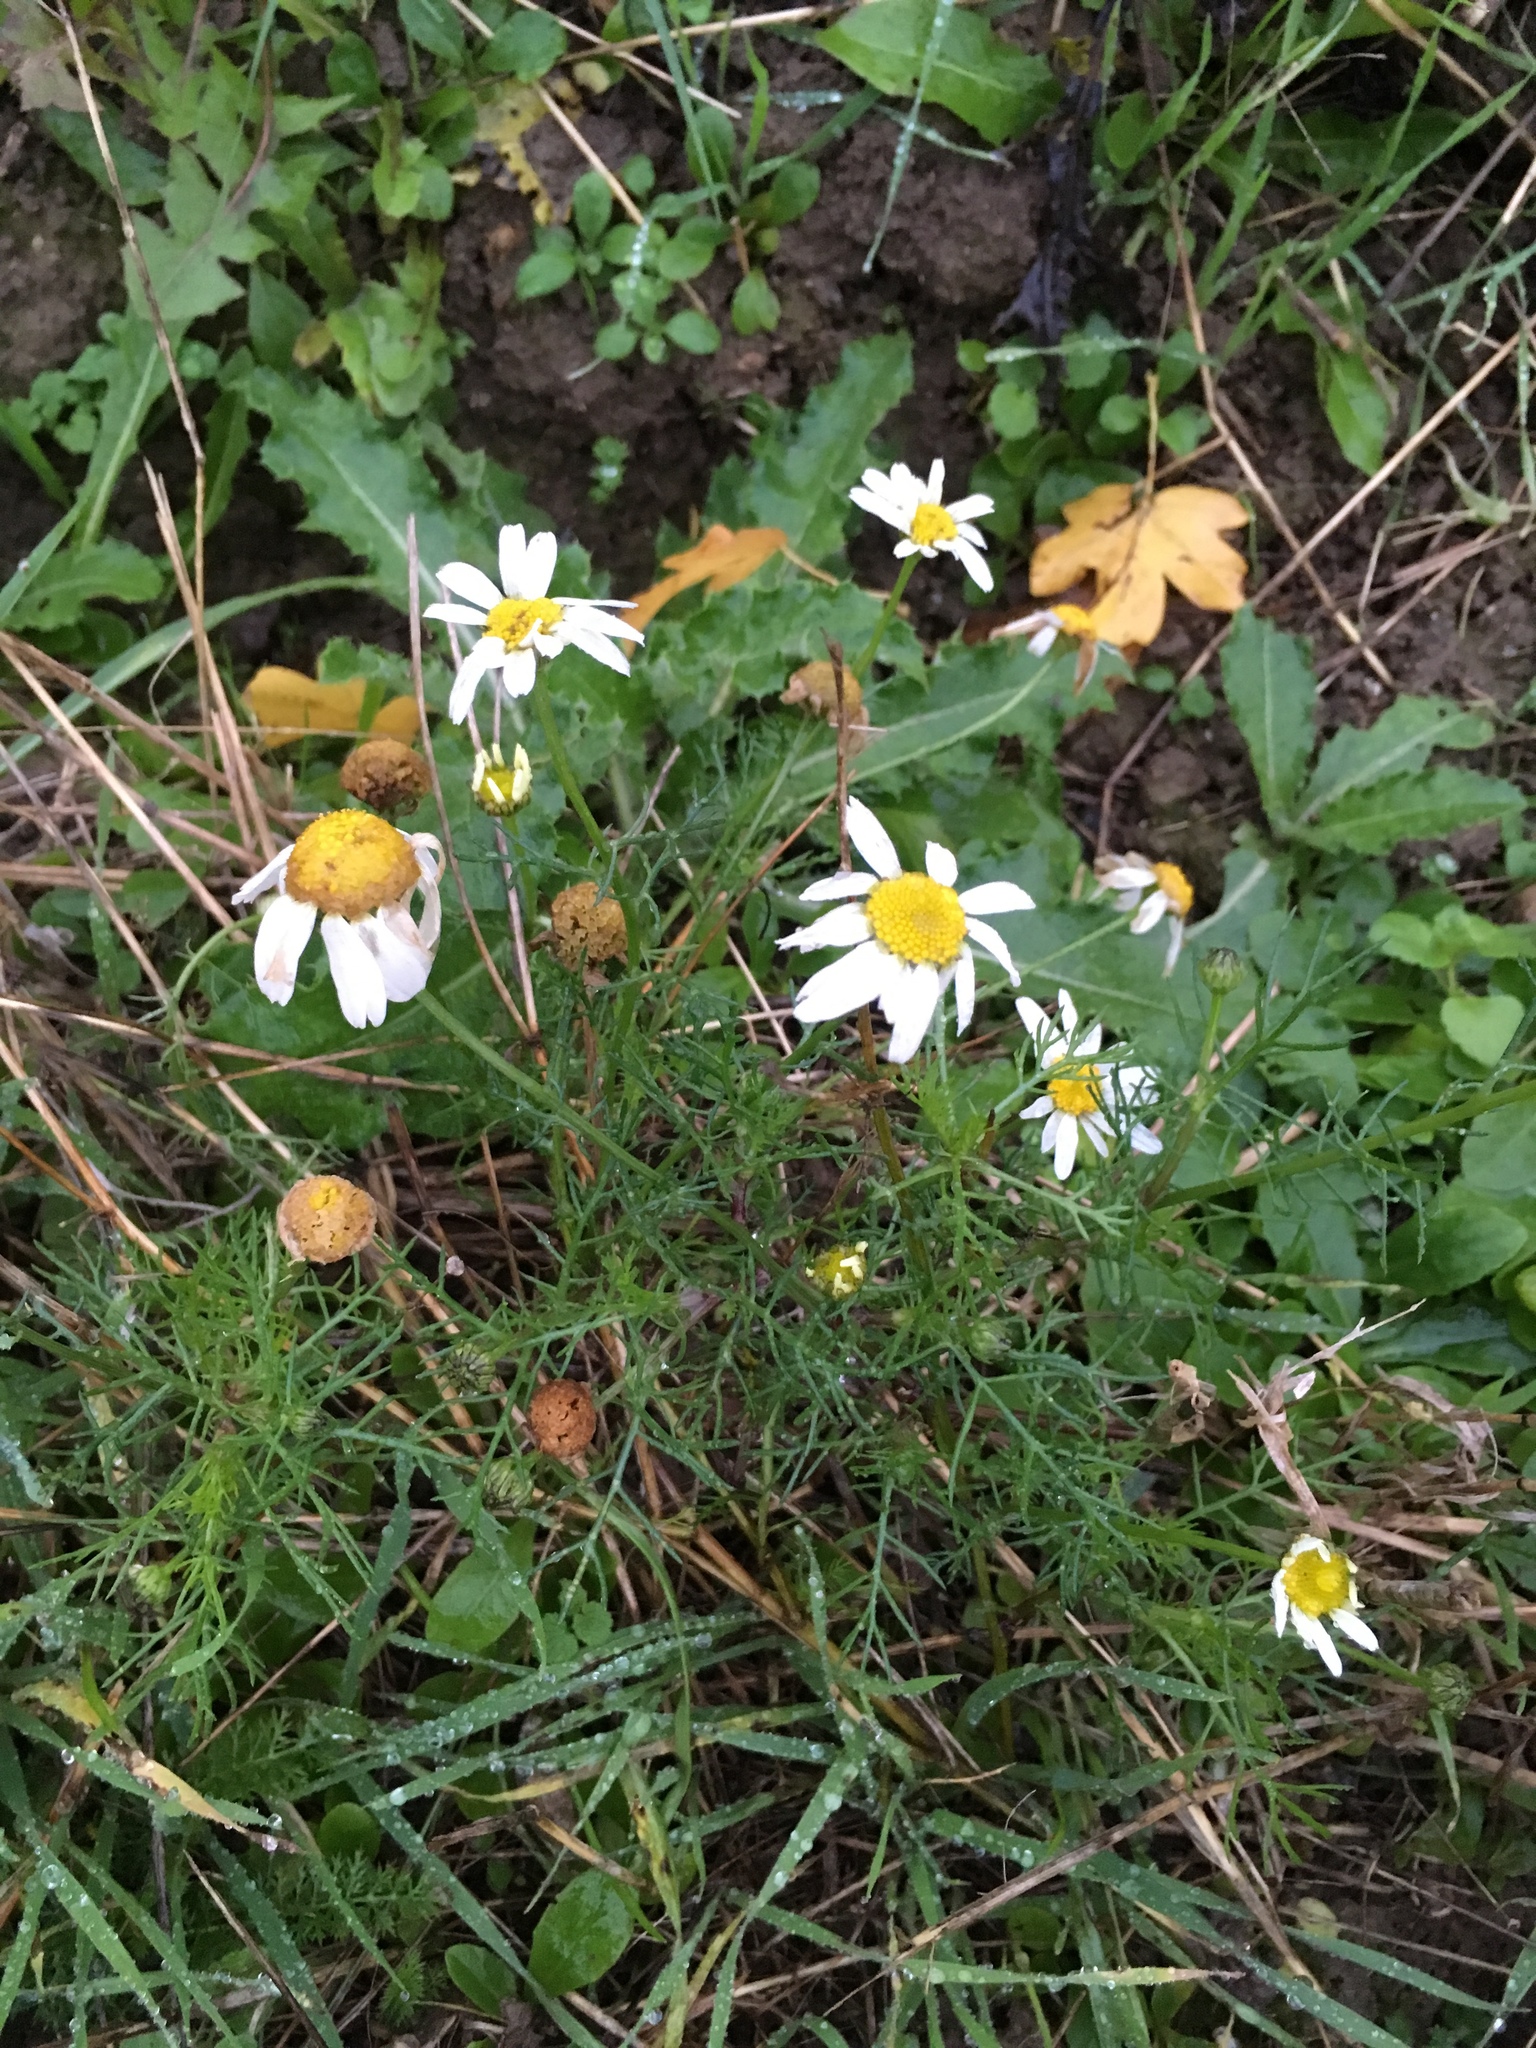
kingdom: Plantae
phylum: Tracheophyta
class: Magnoliopsida
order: Asterales
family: Asteraceae
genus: Tripleurospermum
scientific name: Tripleurospermum inodorum
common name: Scentless mayweed
